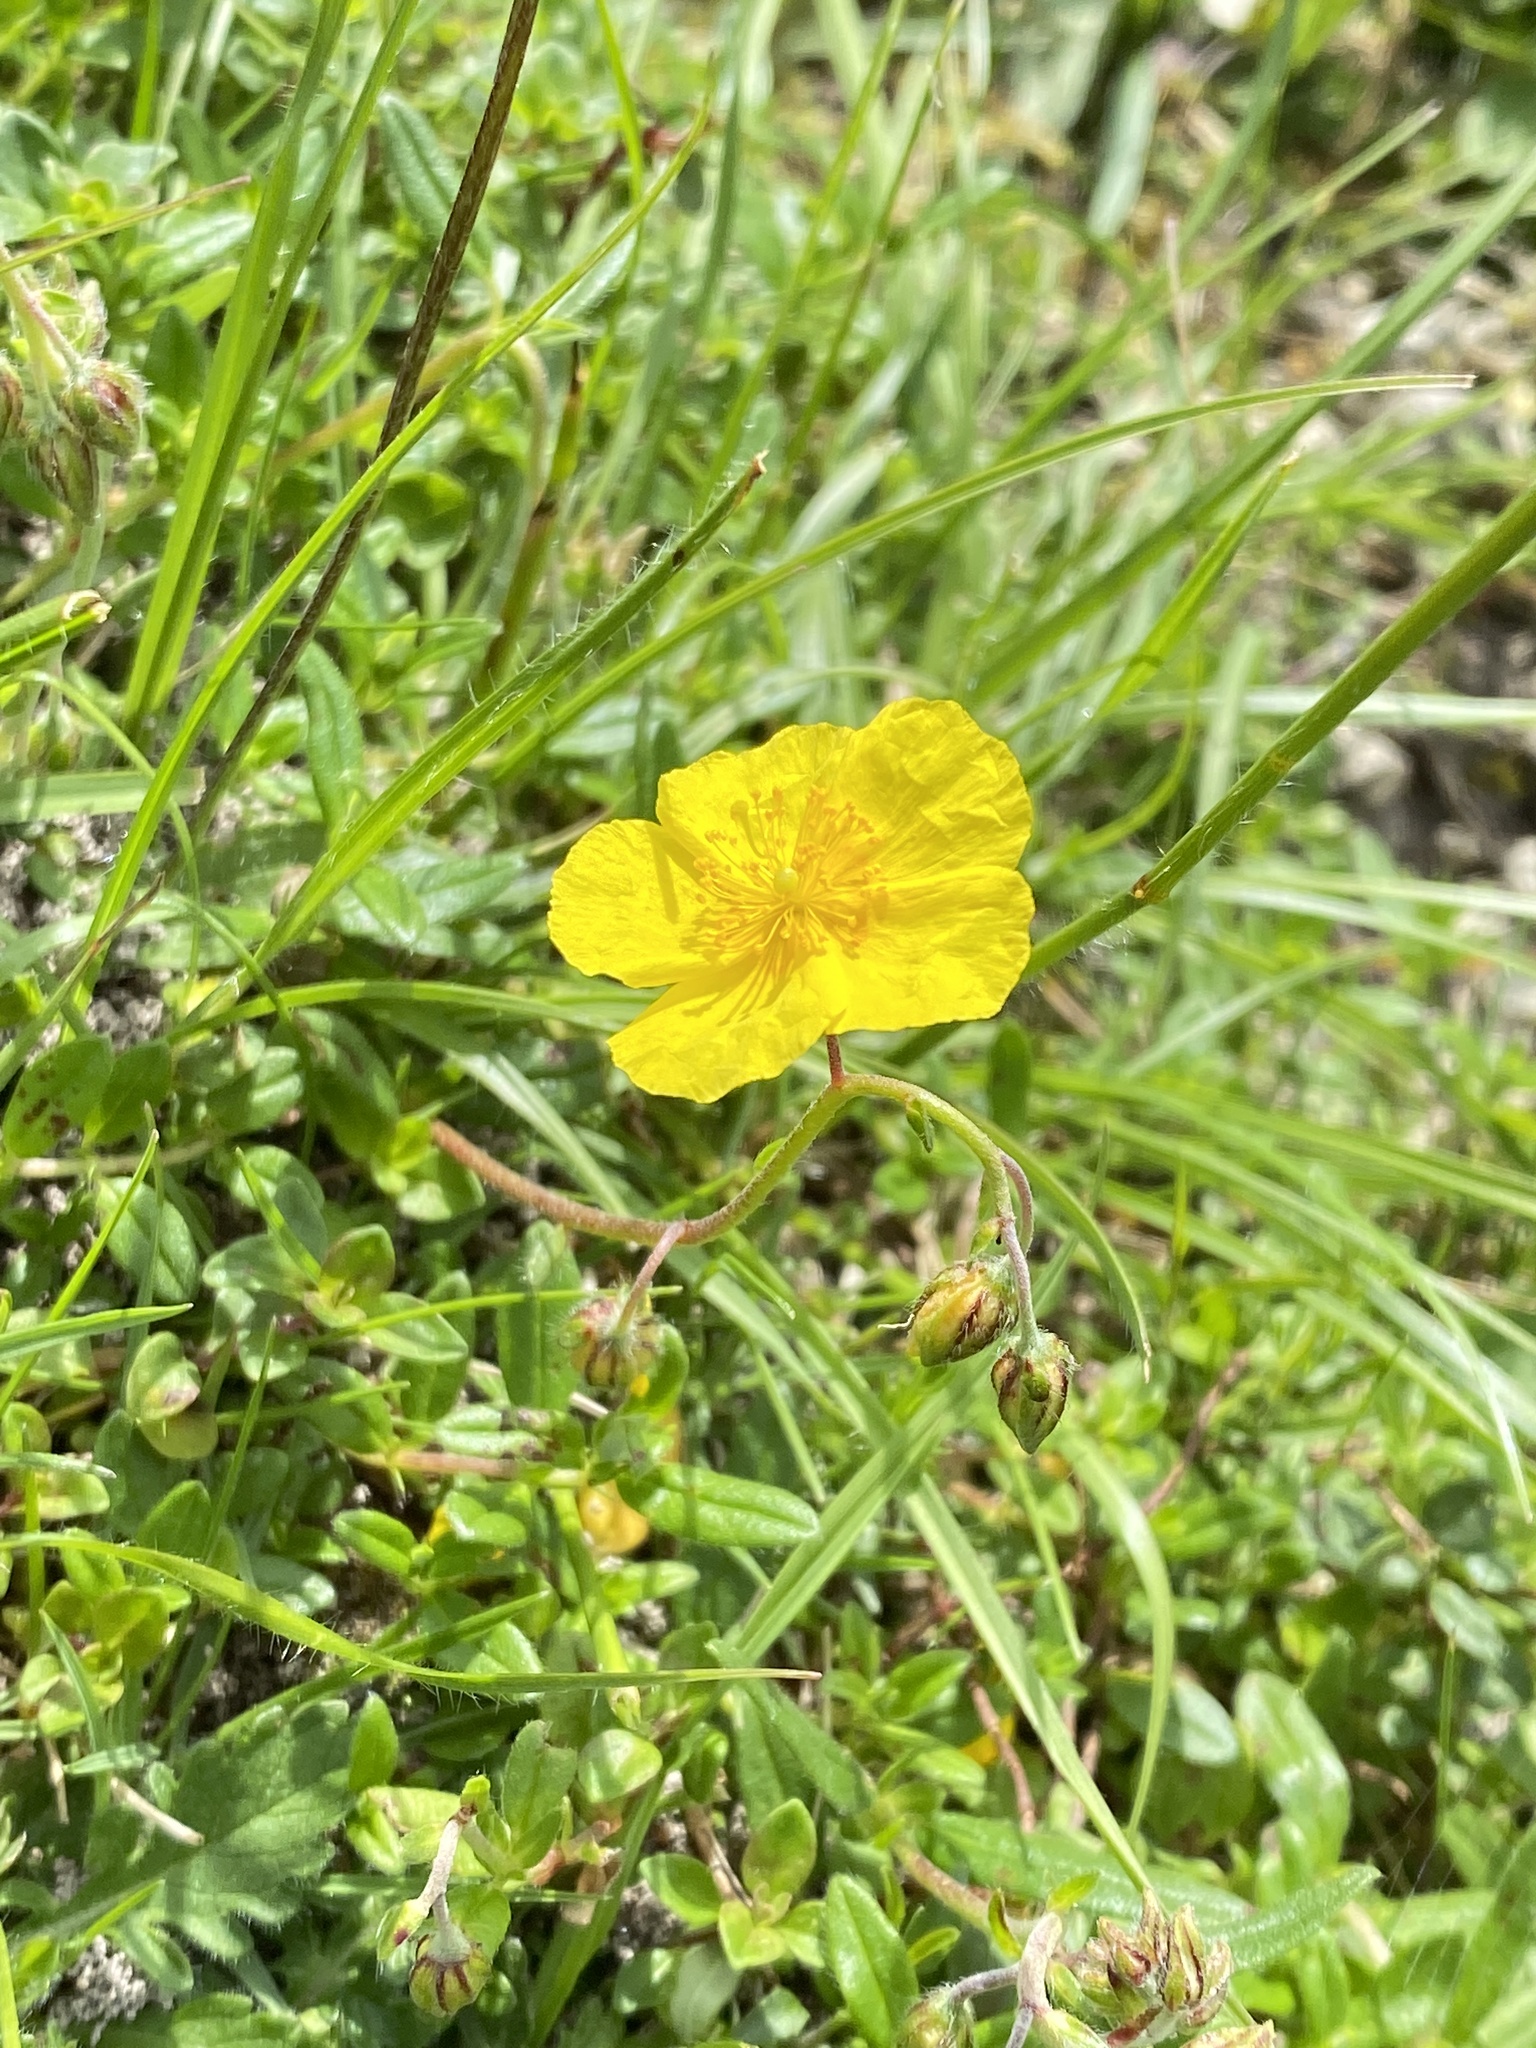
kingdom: Plantae
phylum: Tracheophyta
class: Magnoliopsida
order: Malvales
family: Cistaceae
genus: Helianthemum
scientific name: Helianthemum nummularium
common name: Common rock-rose
